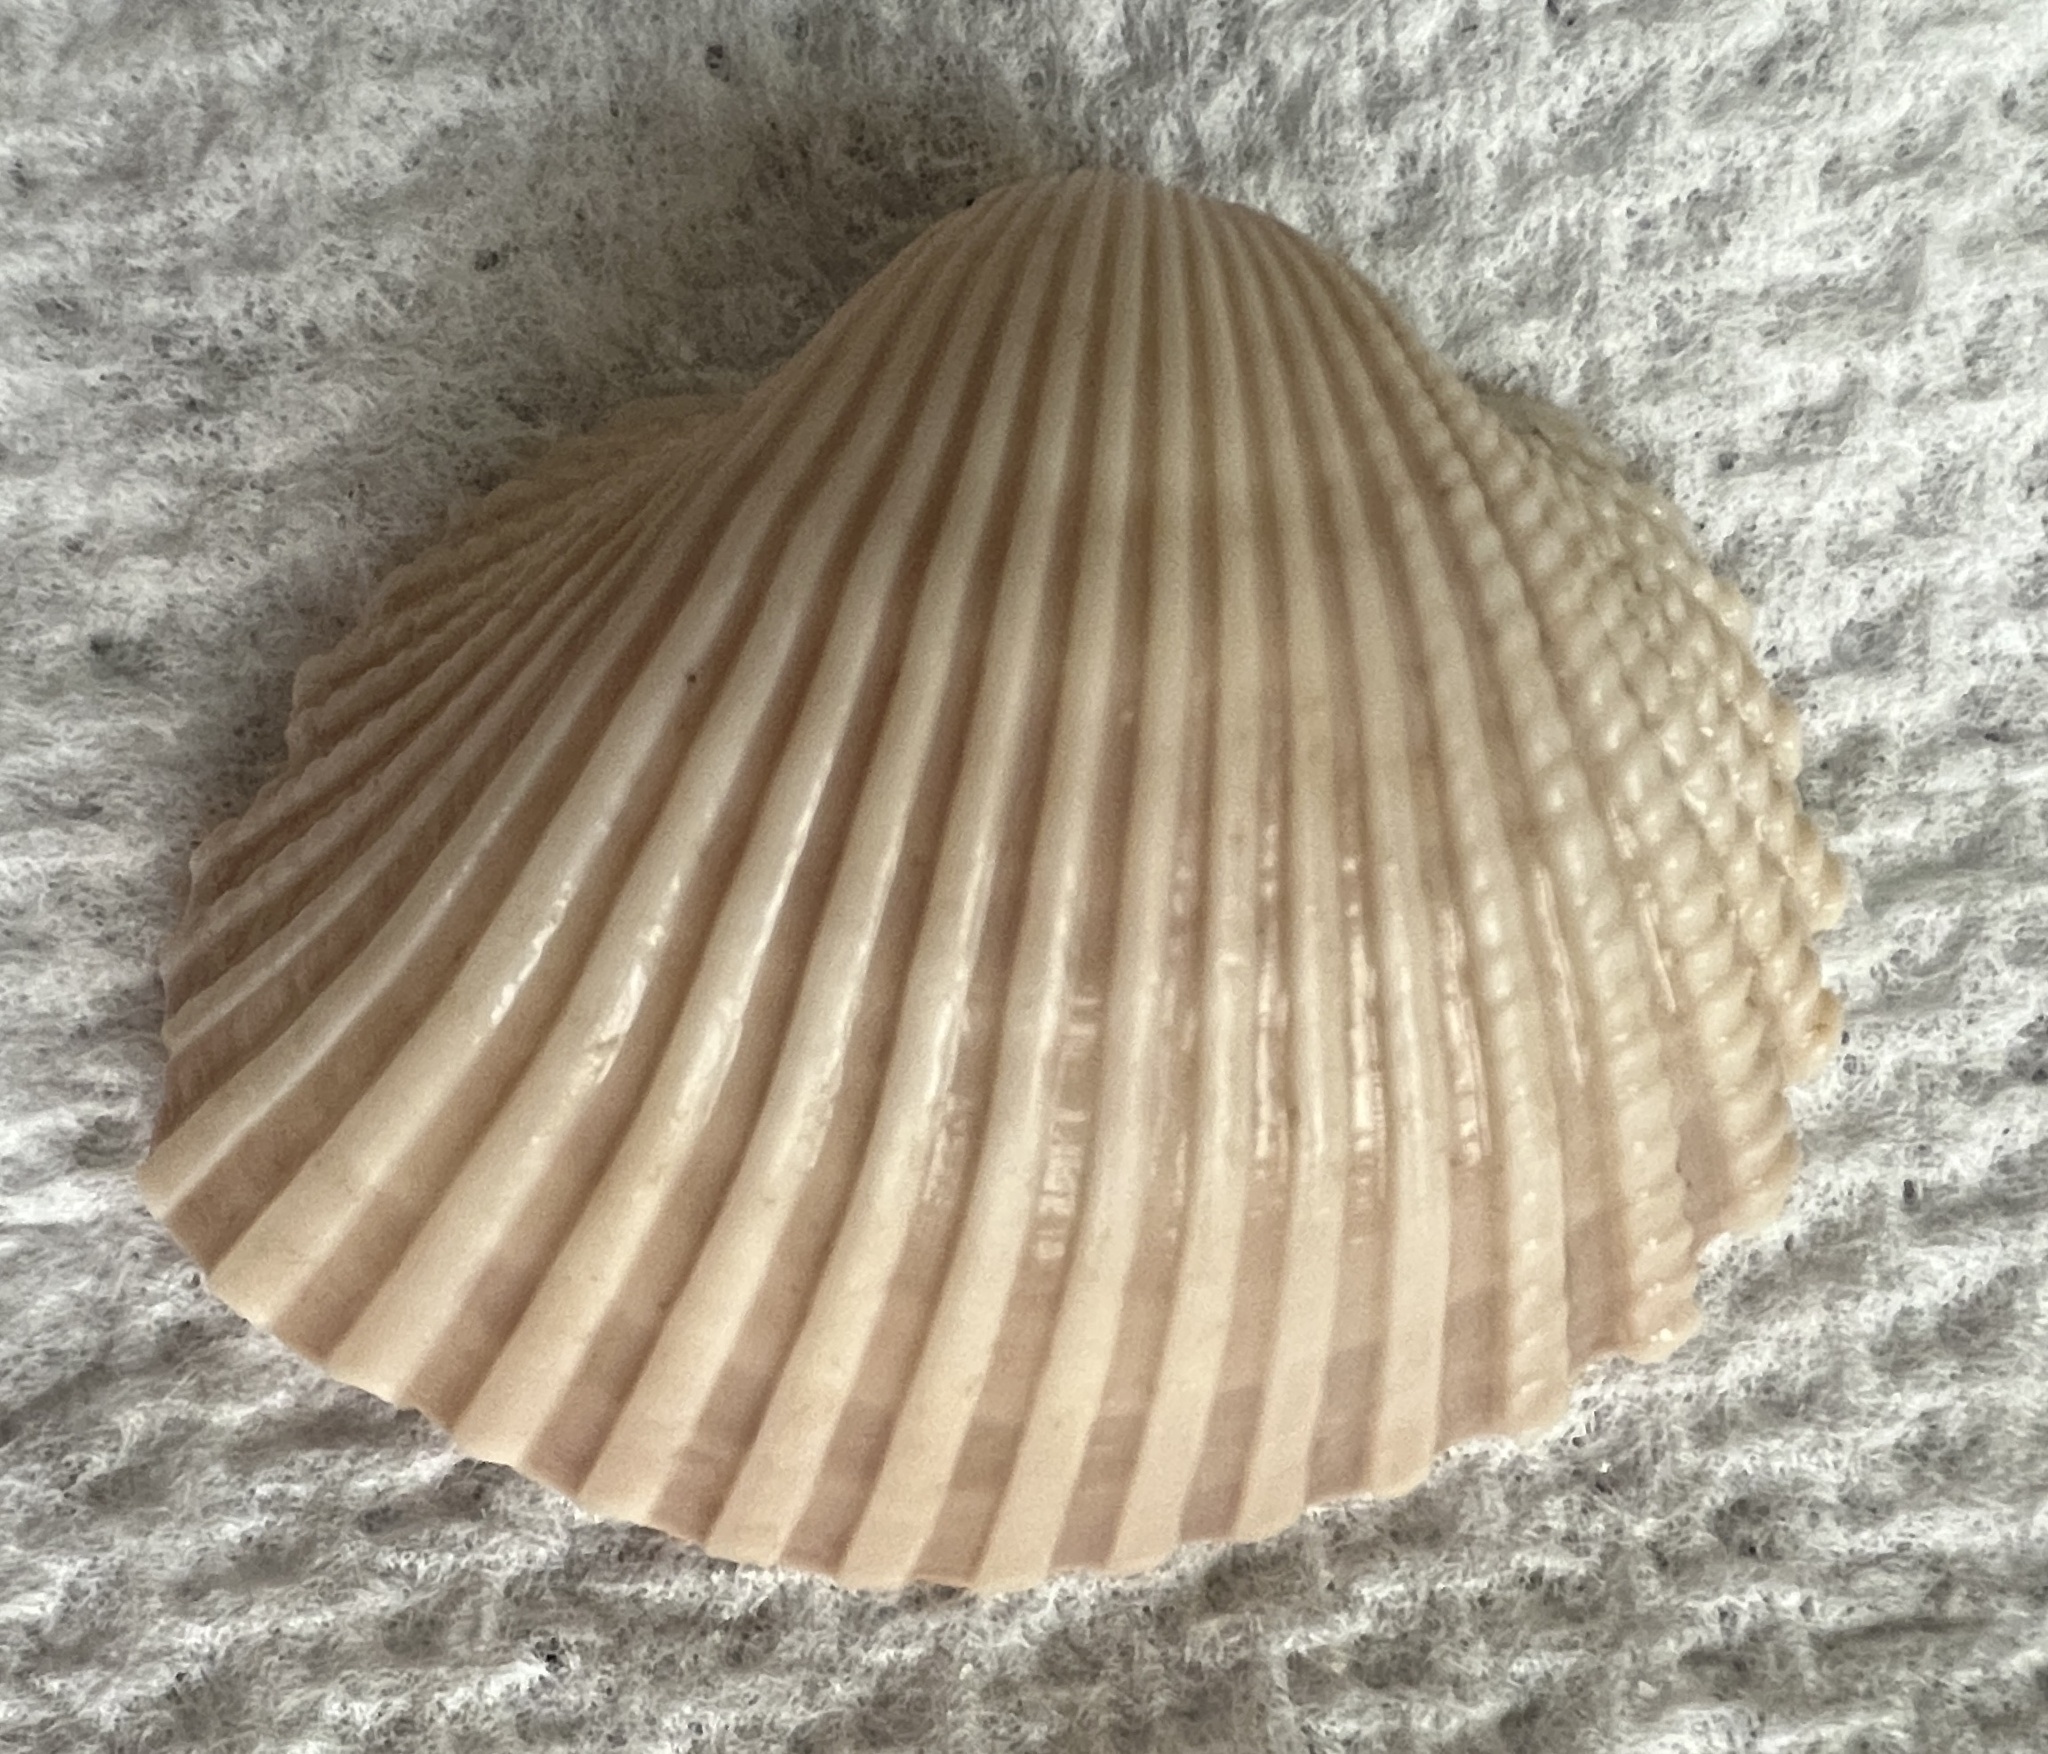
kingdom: Animalia
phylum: Mollusca
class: Bivalvia
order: Arcida
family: Arcidae
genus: Anadara
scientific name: Anadara brasiliana
